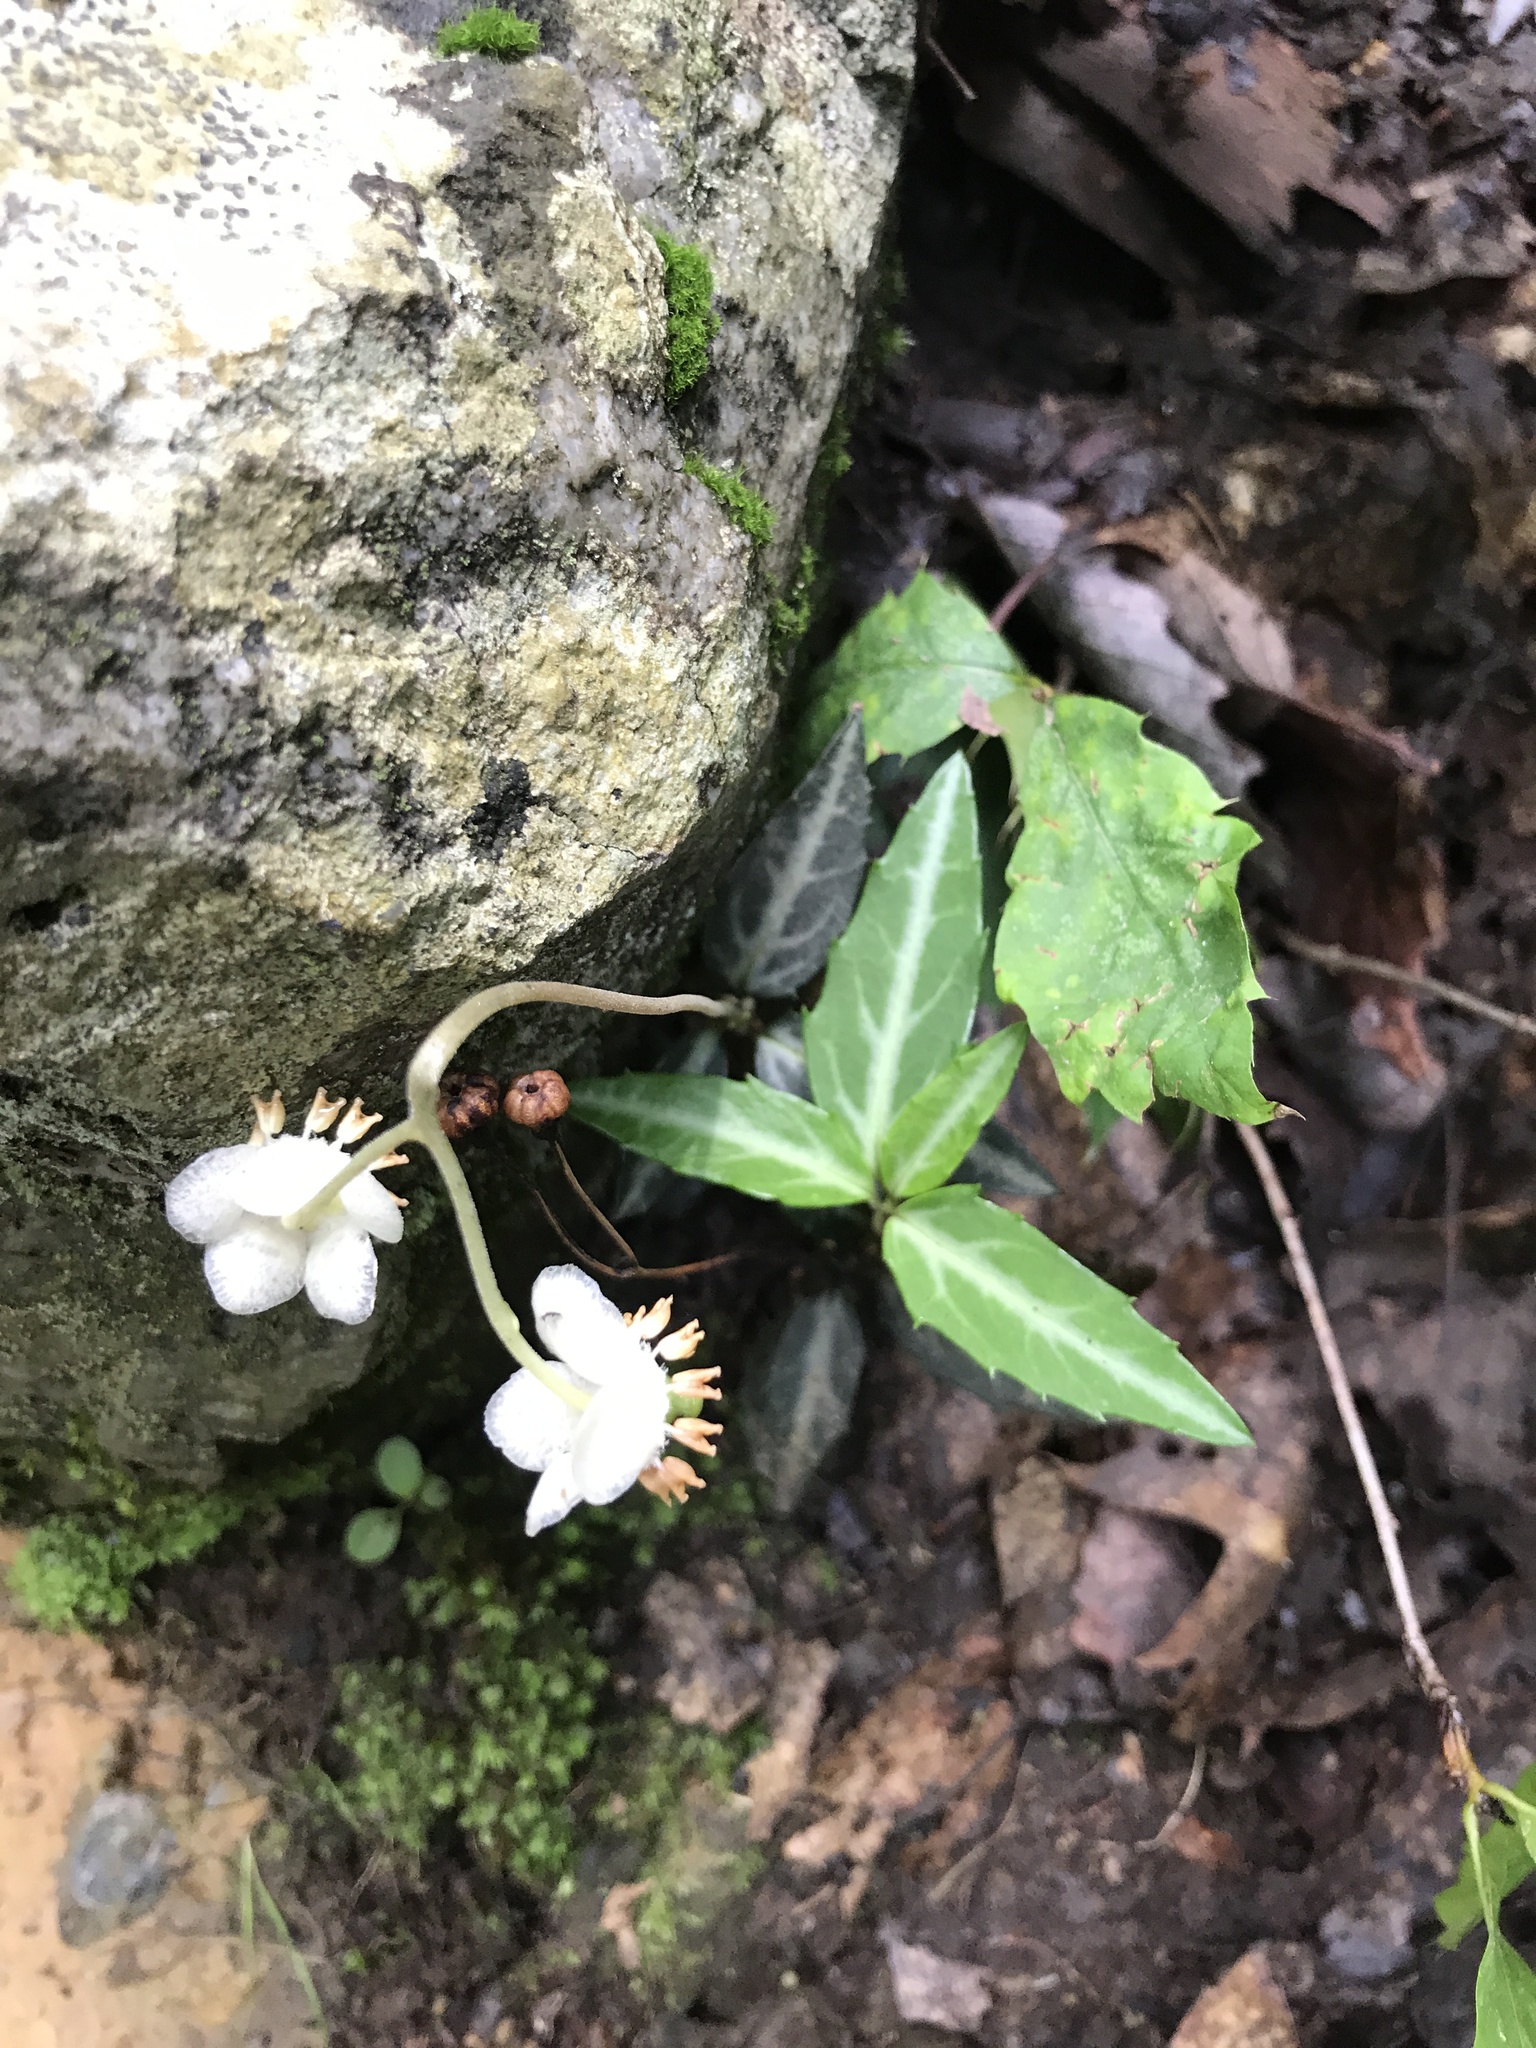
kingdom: Plantae
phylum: Tracheophyta
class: Magnoliopsida
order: Ericales
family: Ericaceae
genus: Chimaphila
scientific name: Chimaphila maculata
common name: Spotted pipsissewa
